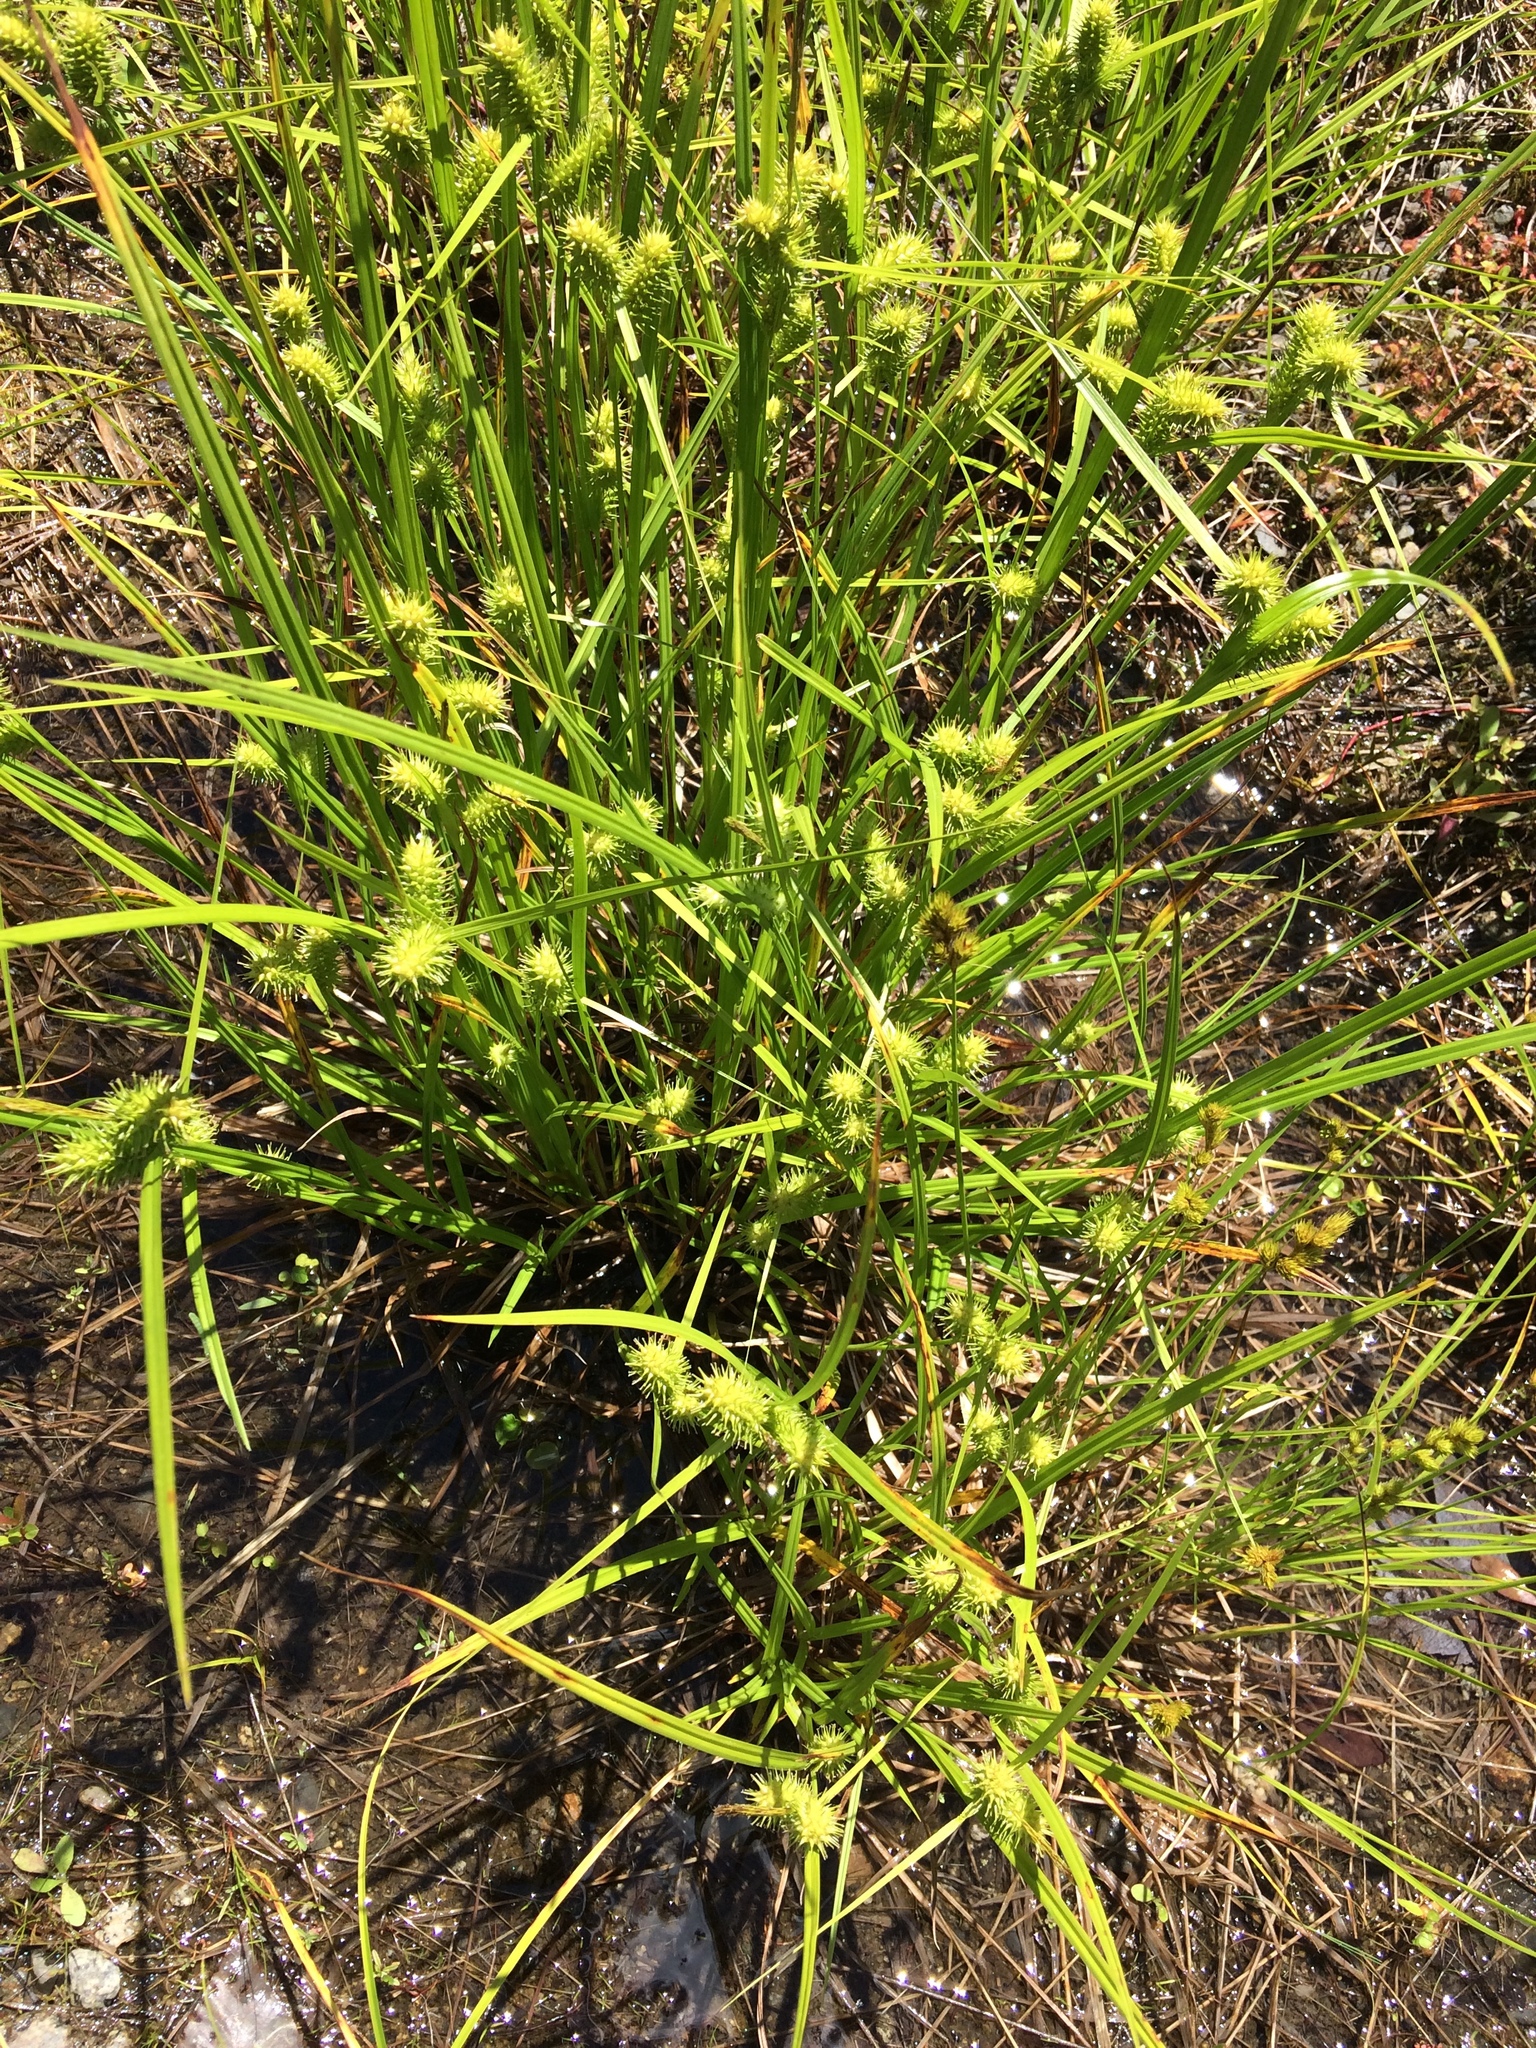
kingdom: Plantae
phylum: Tracheophyta
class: Liliopsida
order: Poales
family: Cyperaceae
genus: Carex
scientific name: Carex lurida
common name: Sallow sedge
